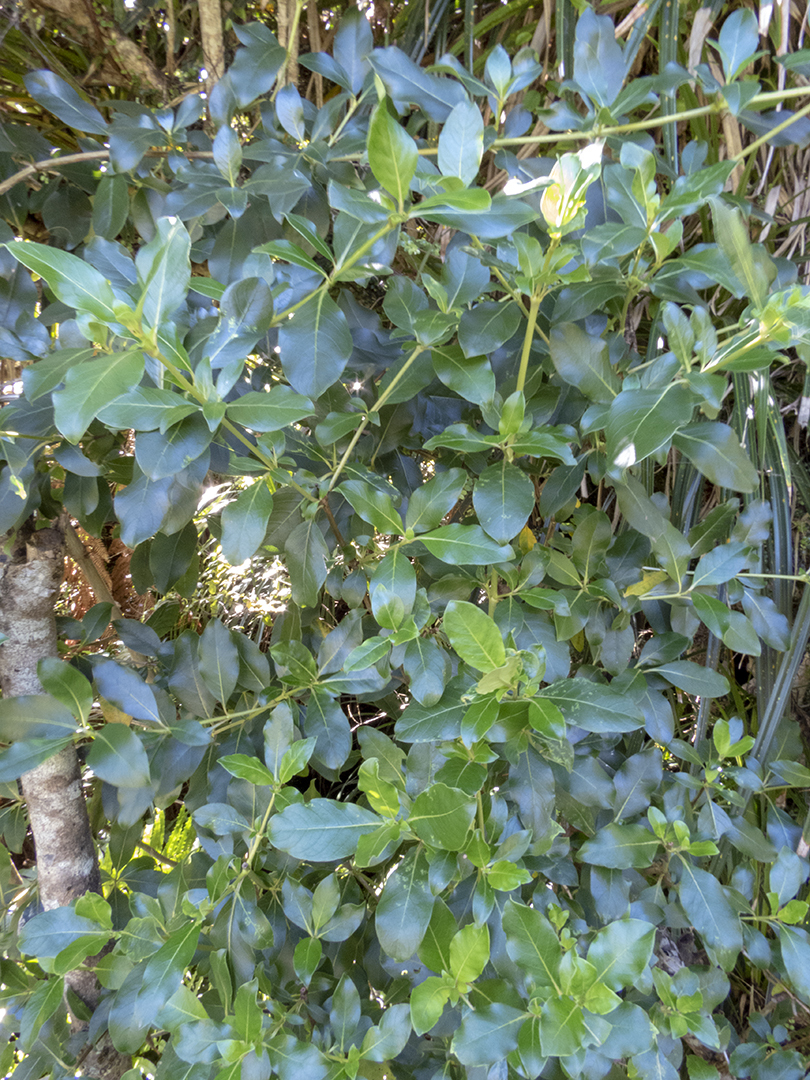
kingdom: Plantae
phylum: Tracheophyta
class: Magnoliopsida
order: Gentianales
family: Rubiaceae
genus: Coprosma
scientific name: Coprosma robusta
